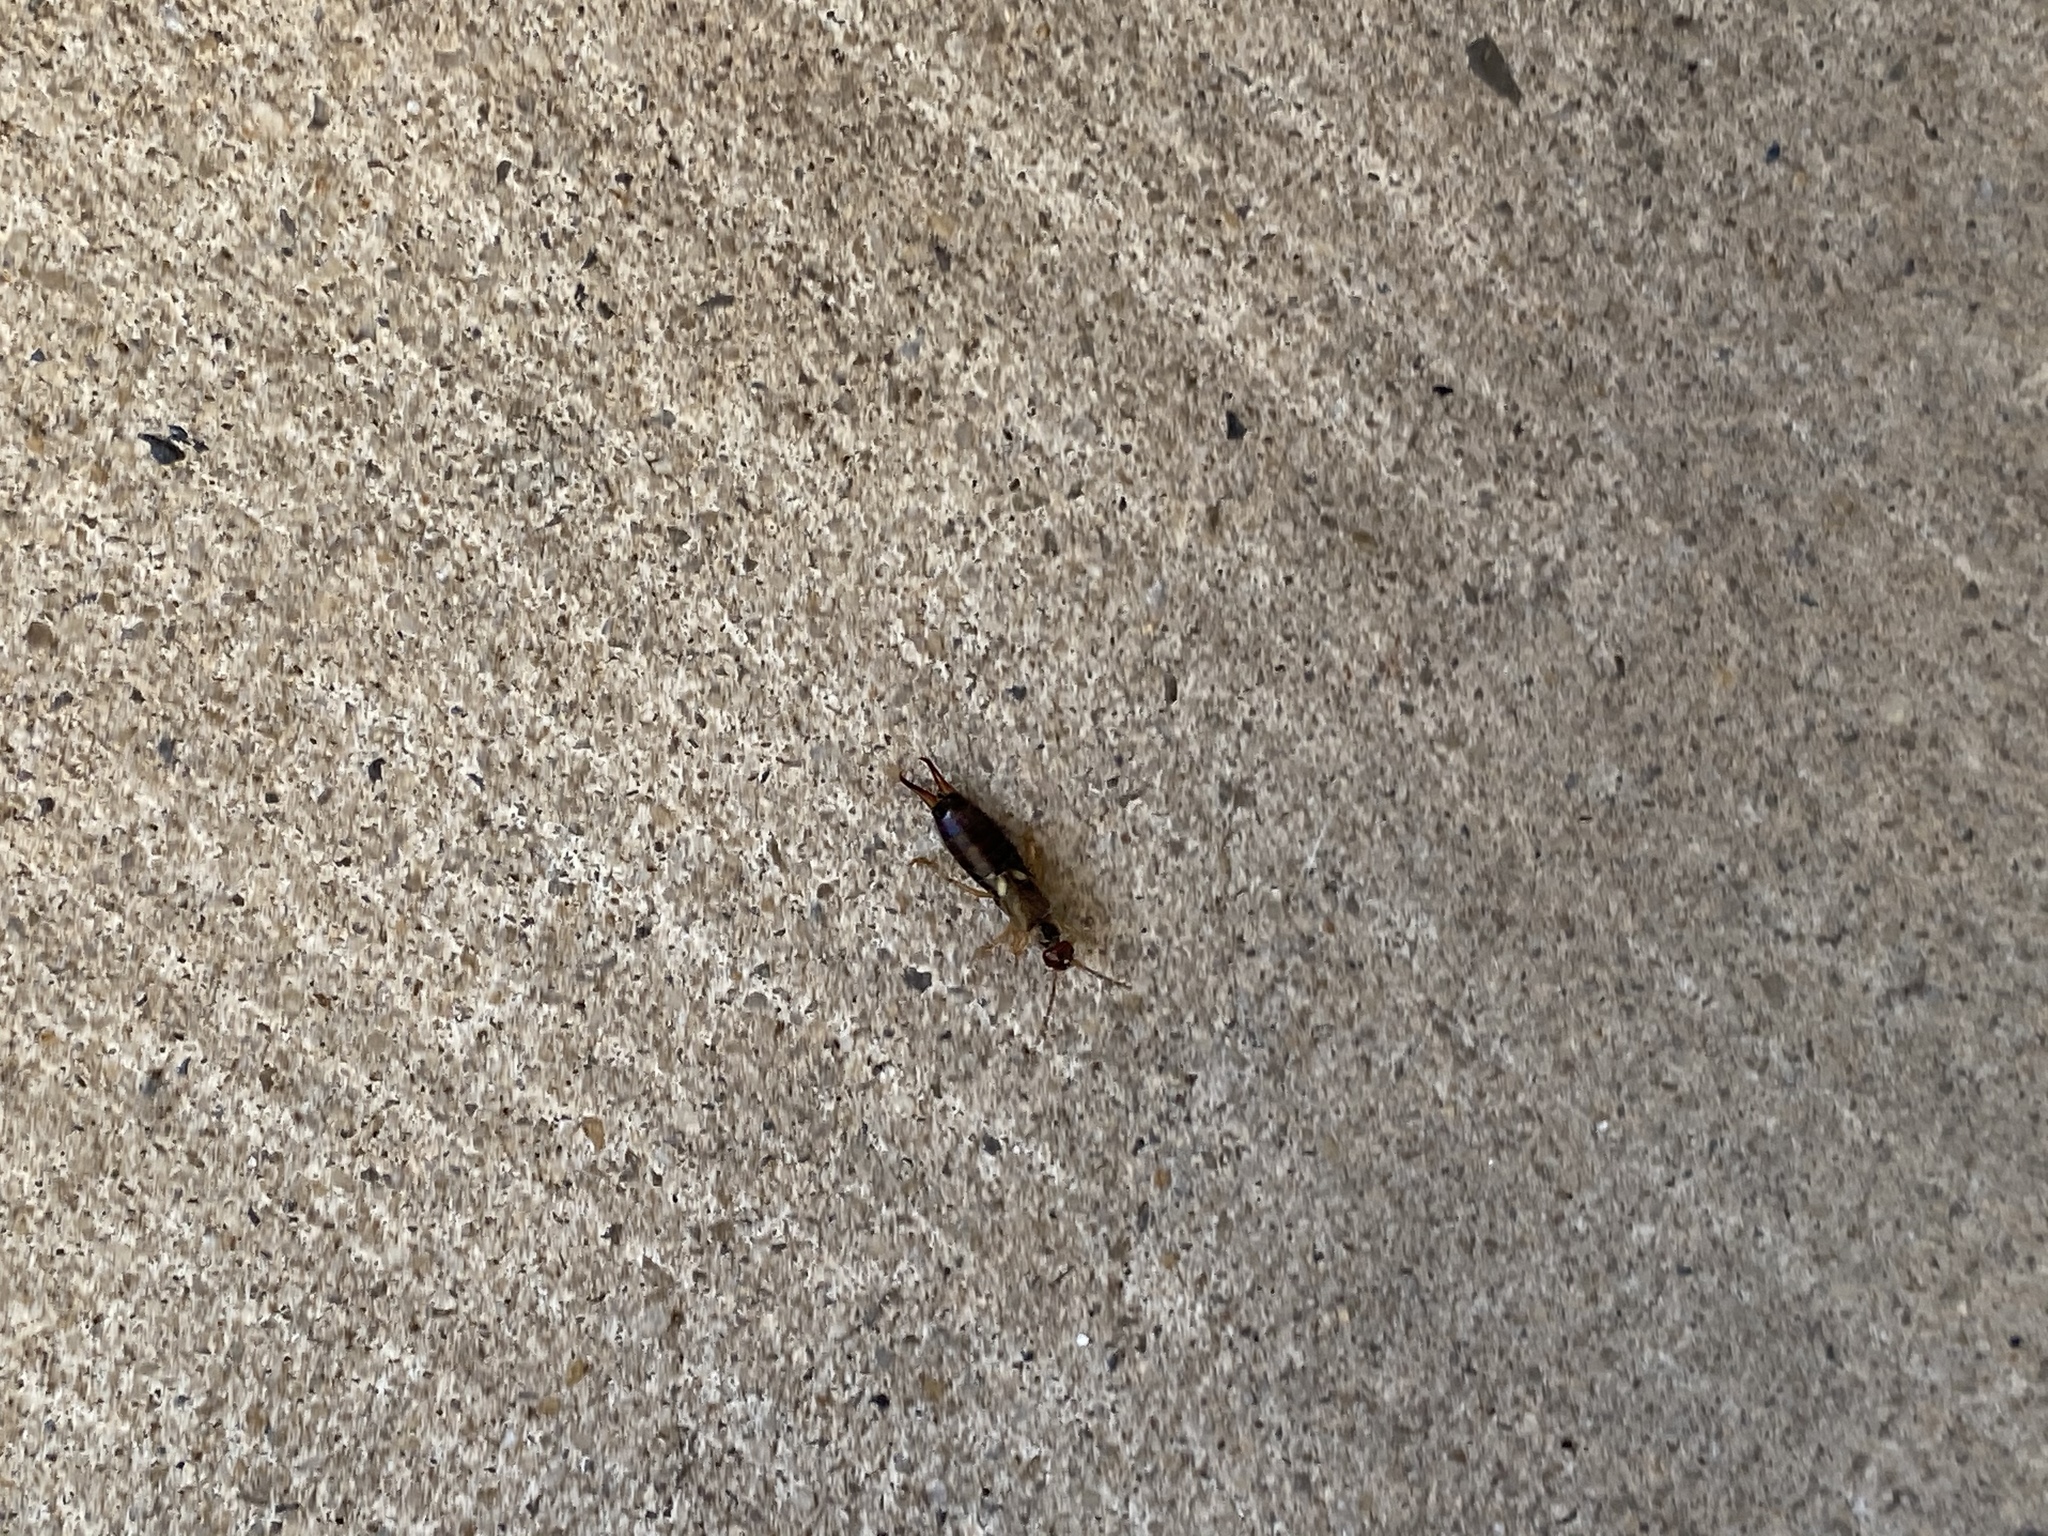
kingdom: Animalia
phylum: Arthropoda
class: Insecta
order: Dermaptera
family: Forficulidae
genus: Forficula
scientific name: Forficula
